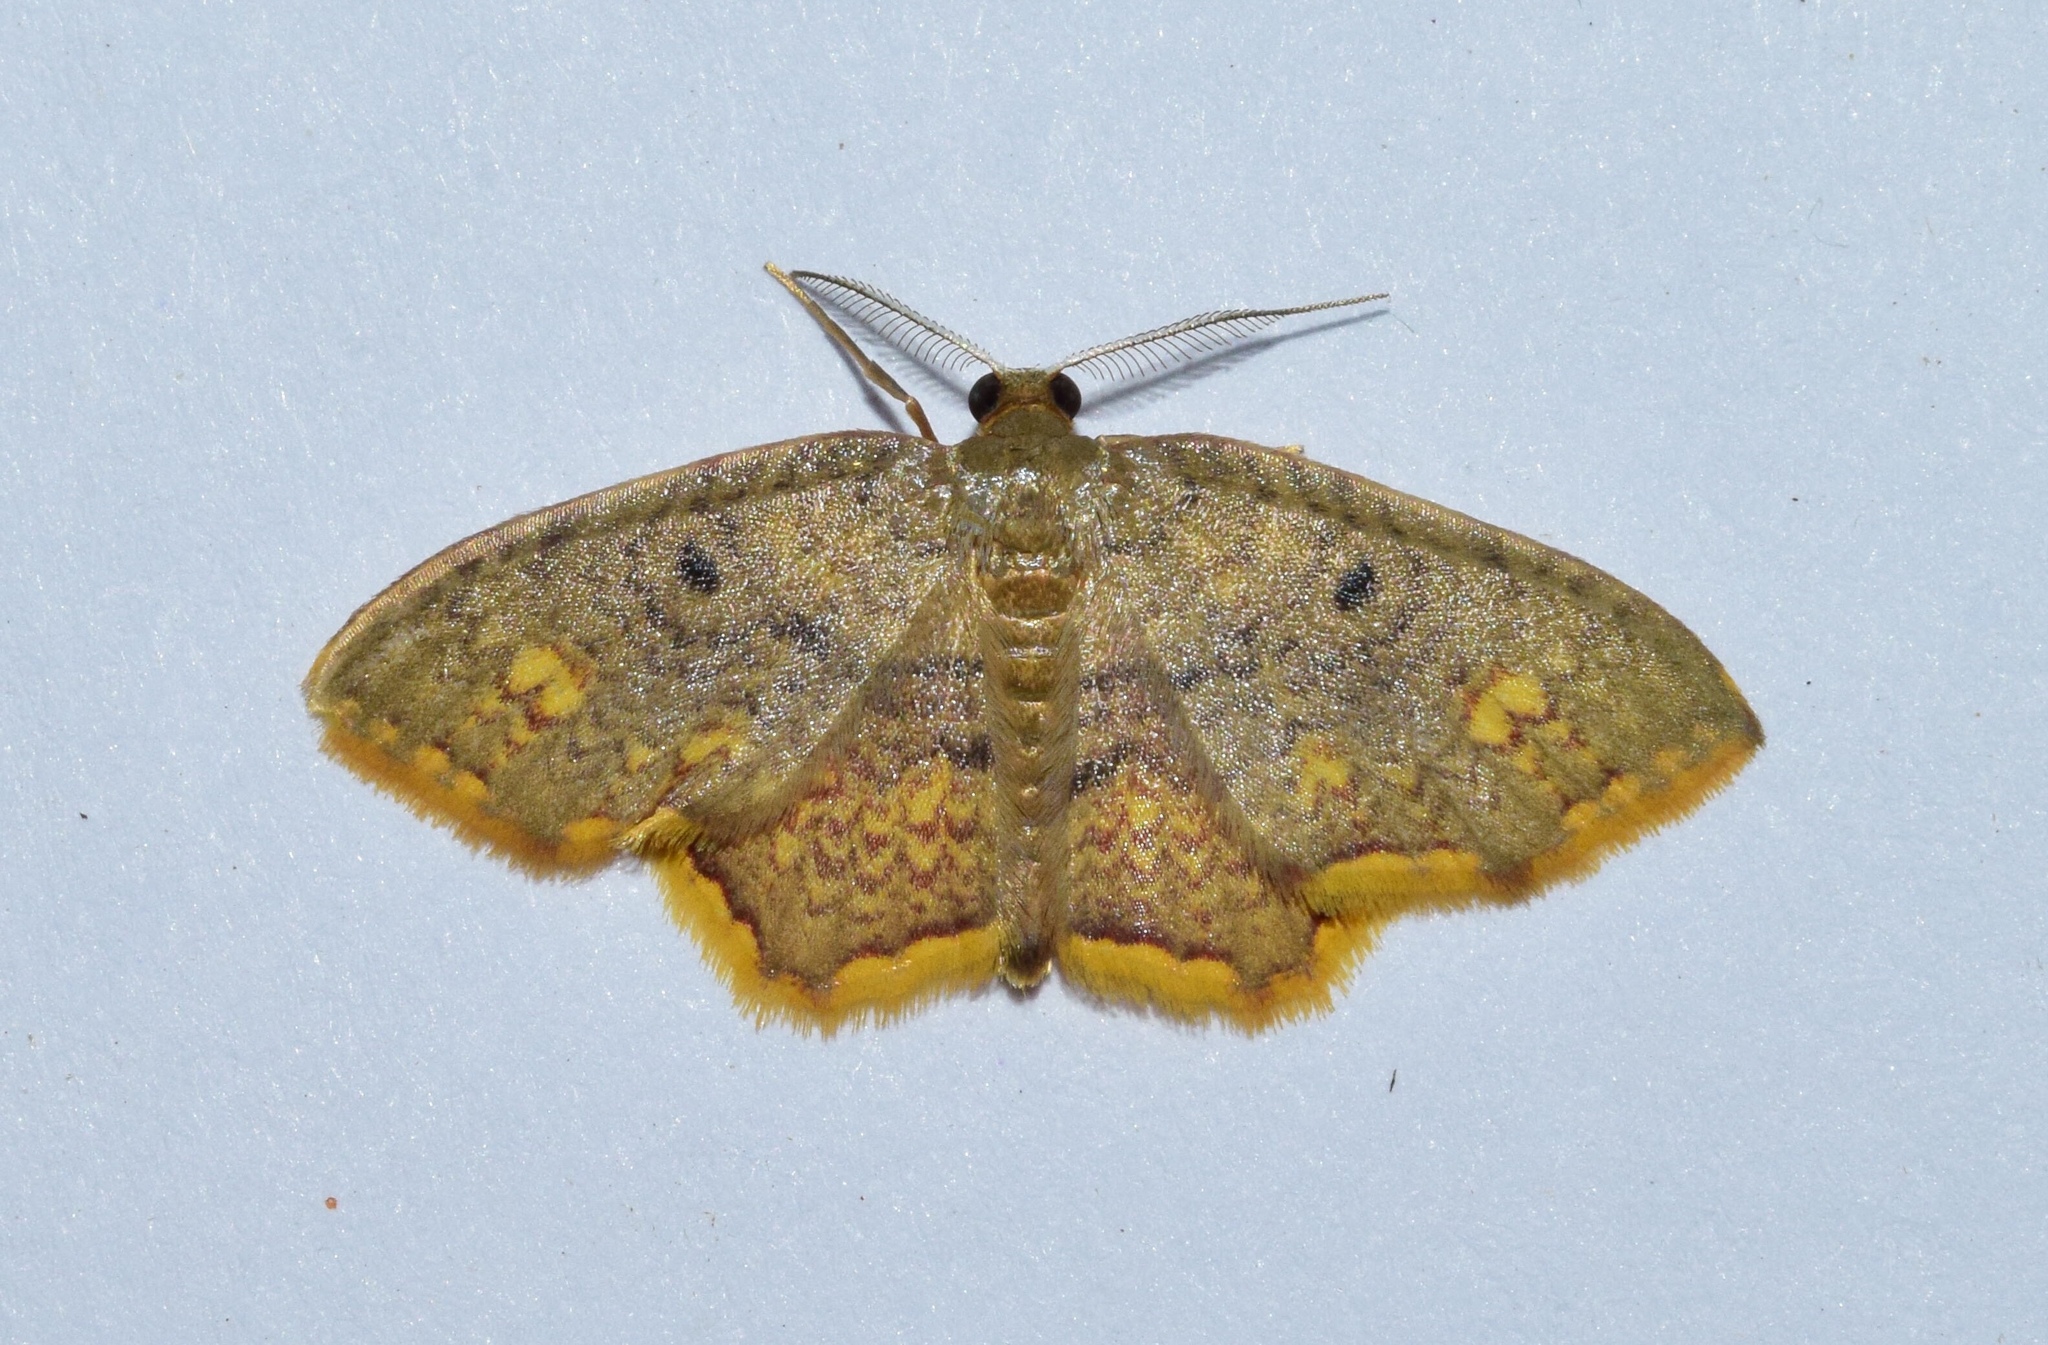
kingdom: Animalia
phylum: Arthropoda
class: Insecta
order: Lepidoptera
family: Geometridae
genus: Eois
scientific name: Eois grataria
